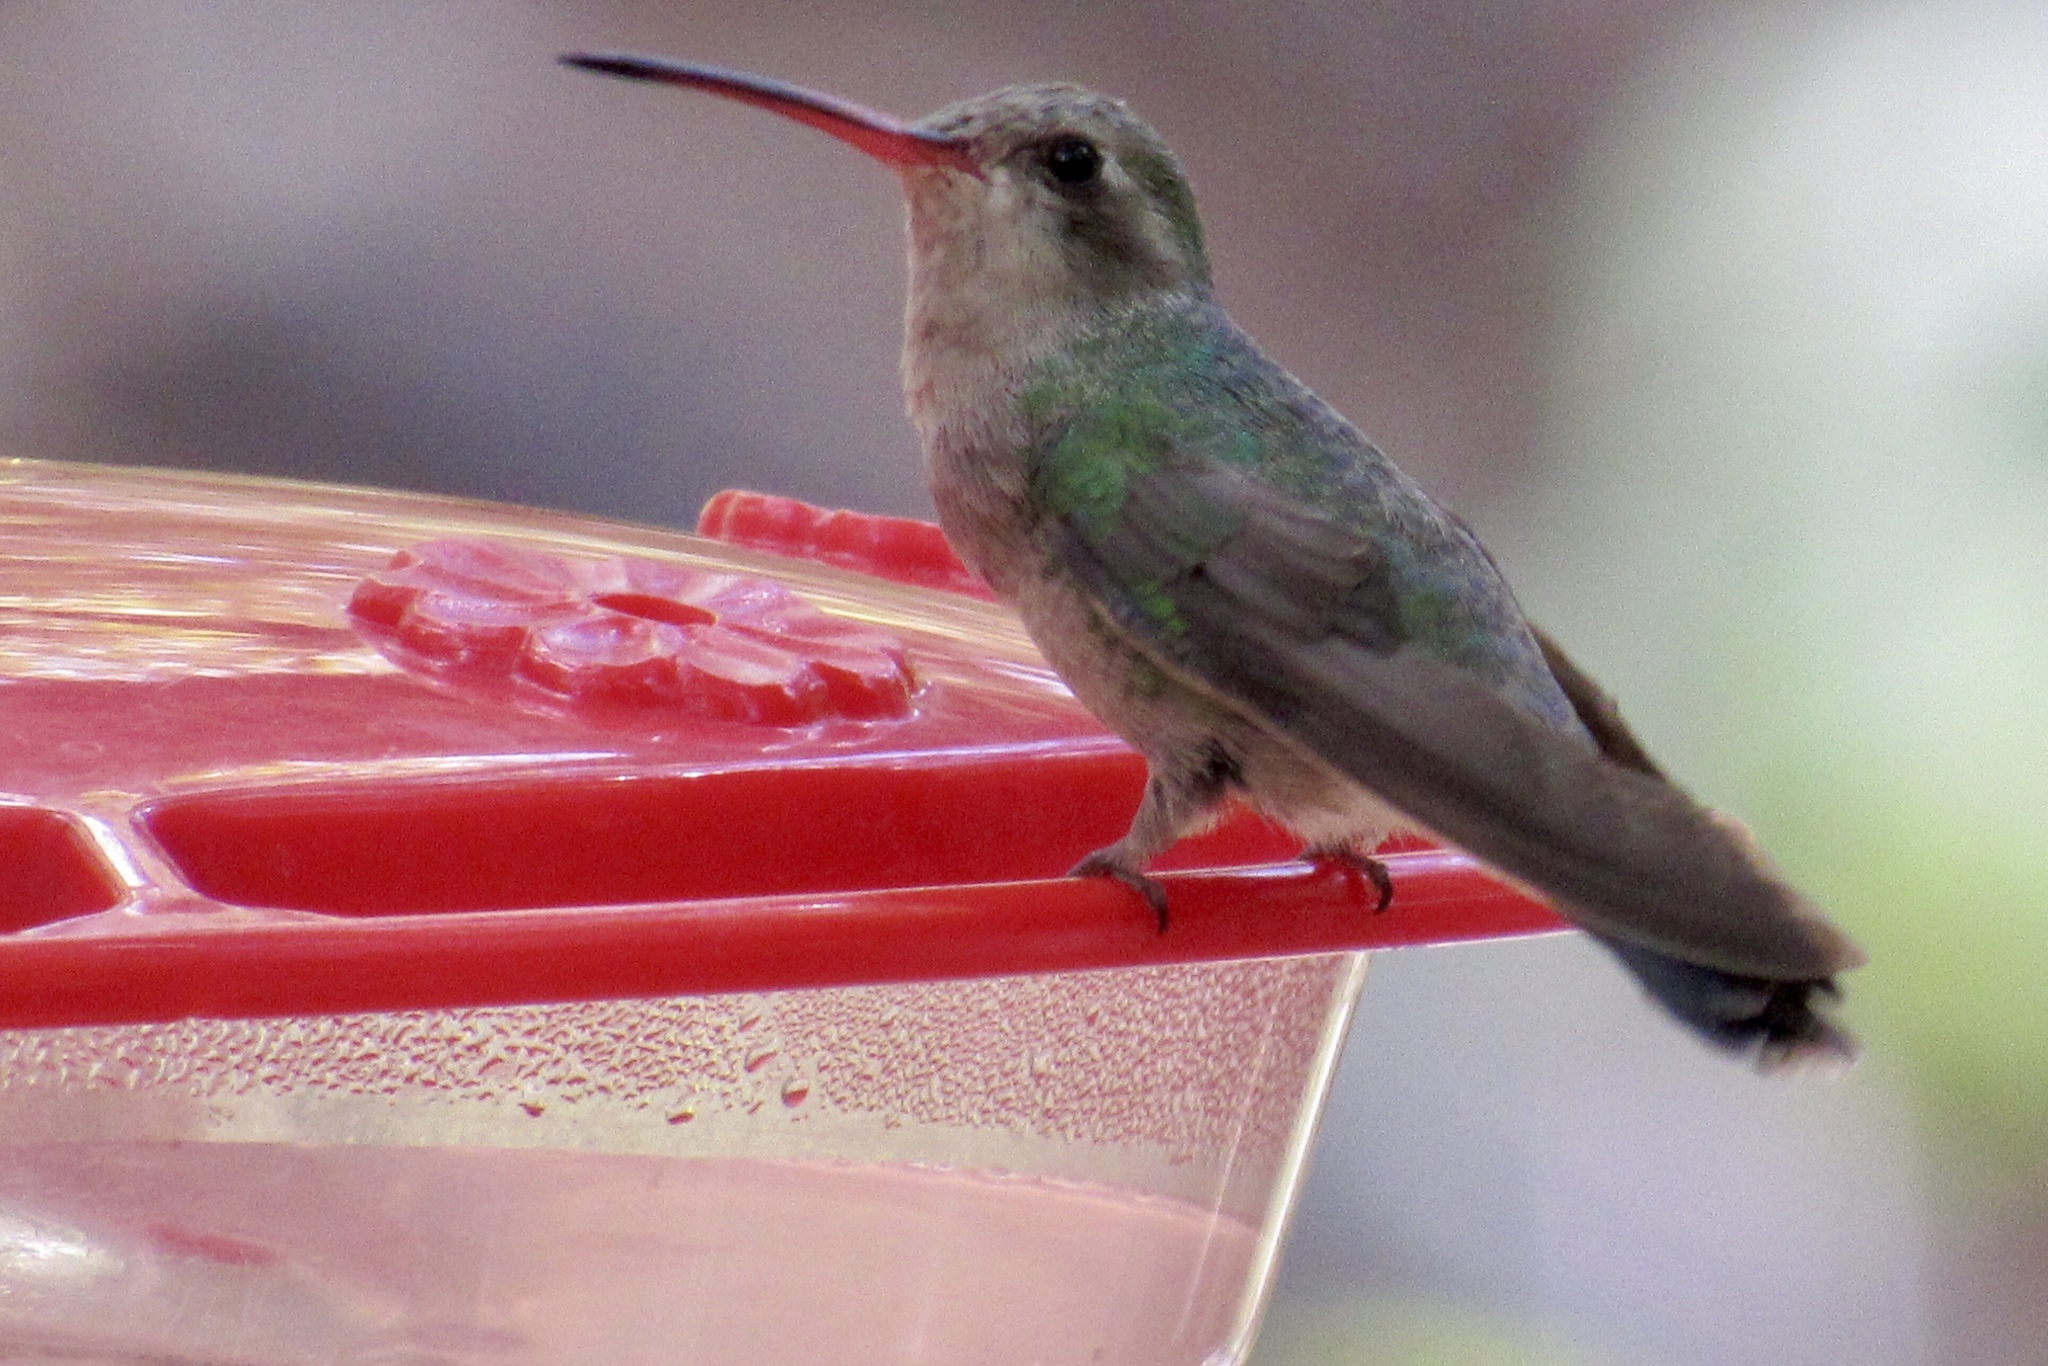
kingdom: Animalia
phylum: Chordata
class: Aves
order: Apodiformes
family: Trochilidae
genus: Cynanthus
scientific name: Cynanthus latirostris
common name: Broad-billed hummingbird
